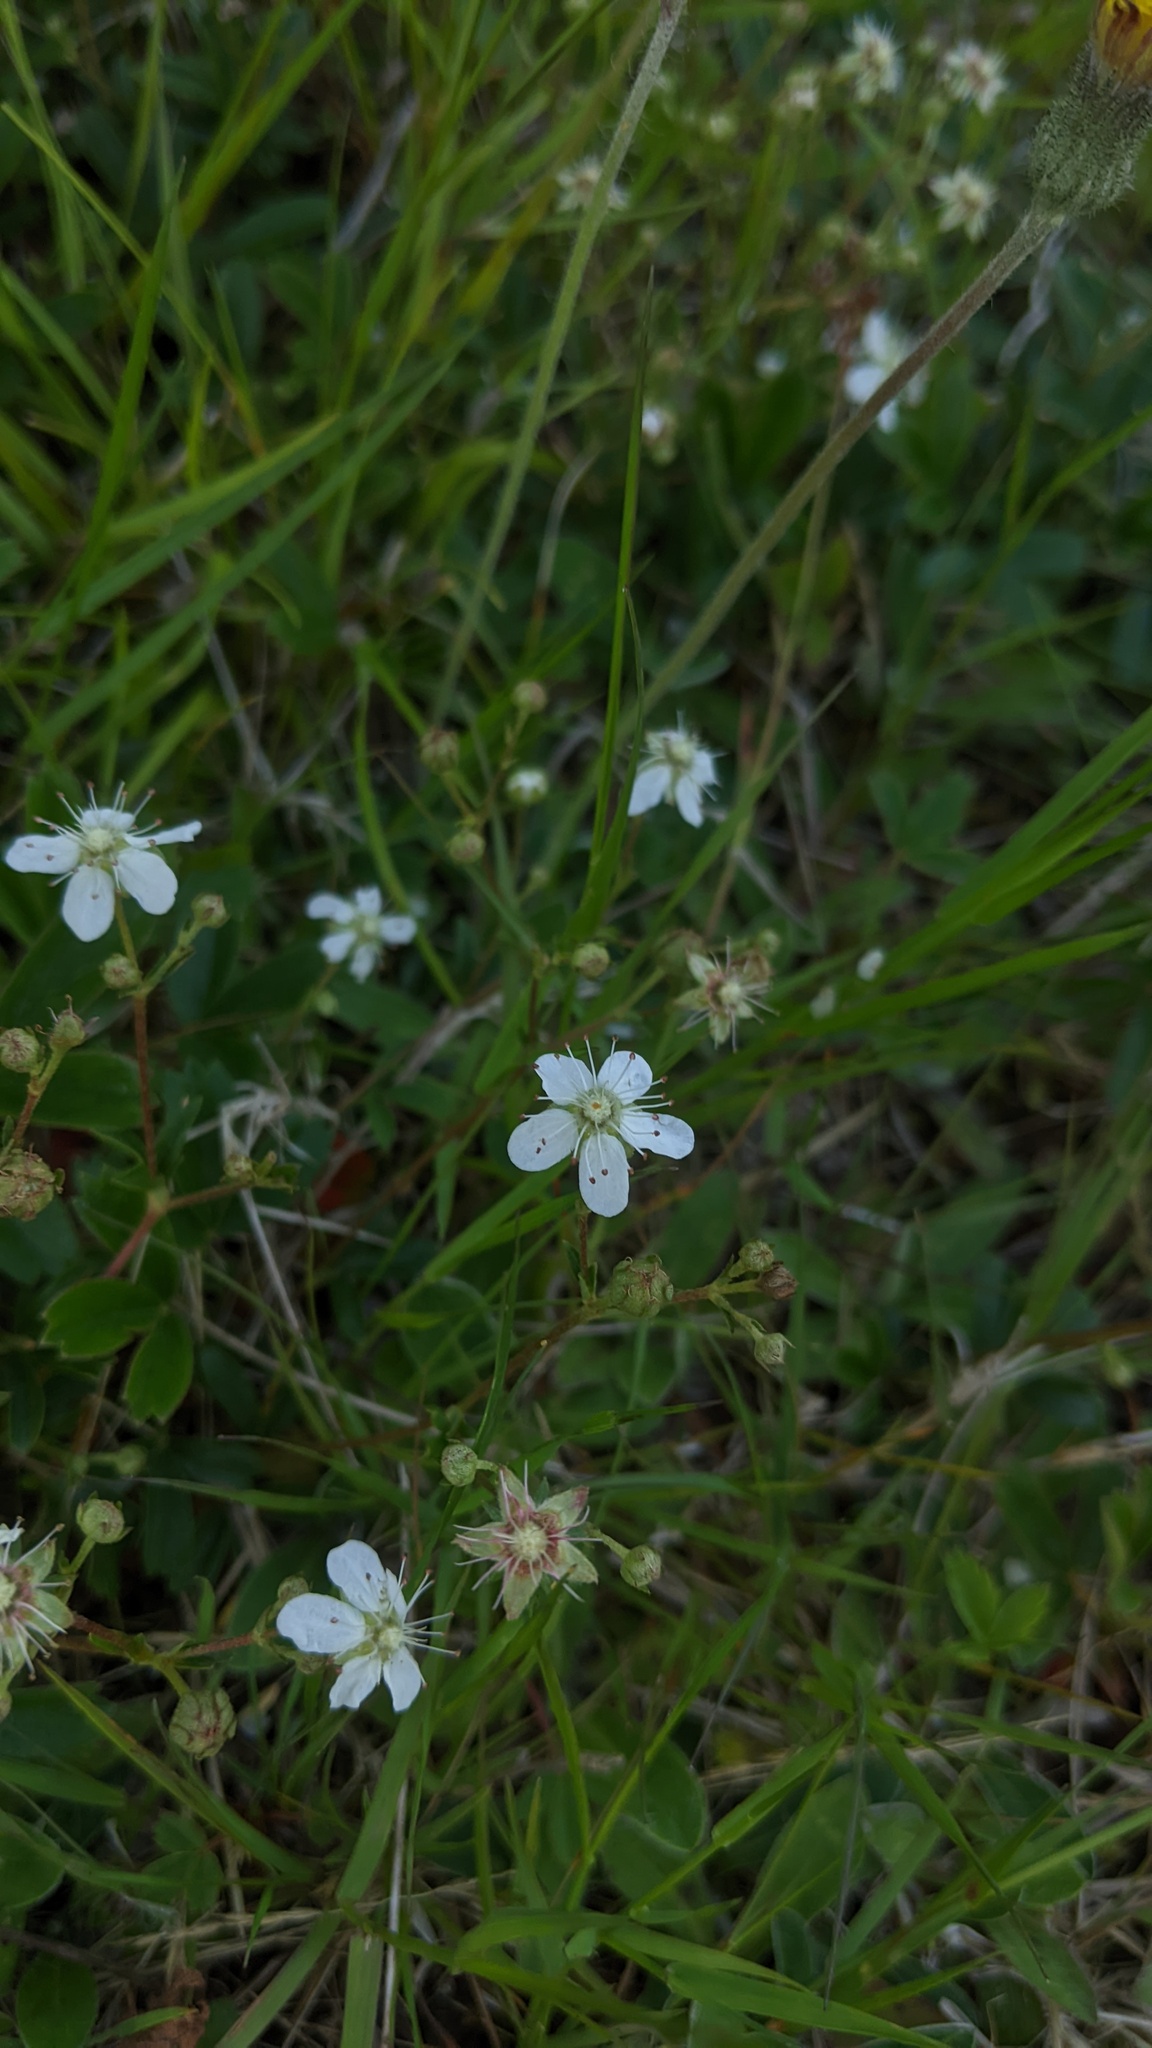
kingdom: Plantae
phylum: Tracheophyta
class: Magnoliopsida
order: Rosales
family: Rosaceae
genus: Sibbaldia
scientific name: Sibbaldia tridentata
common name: Three-toothed cinquefoil
